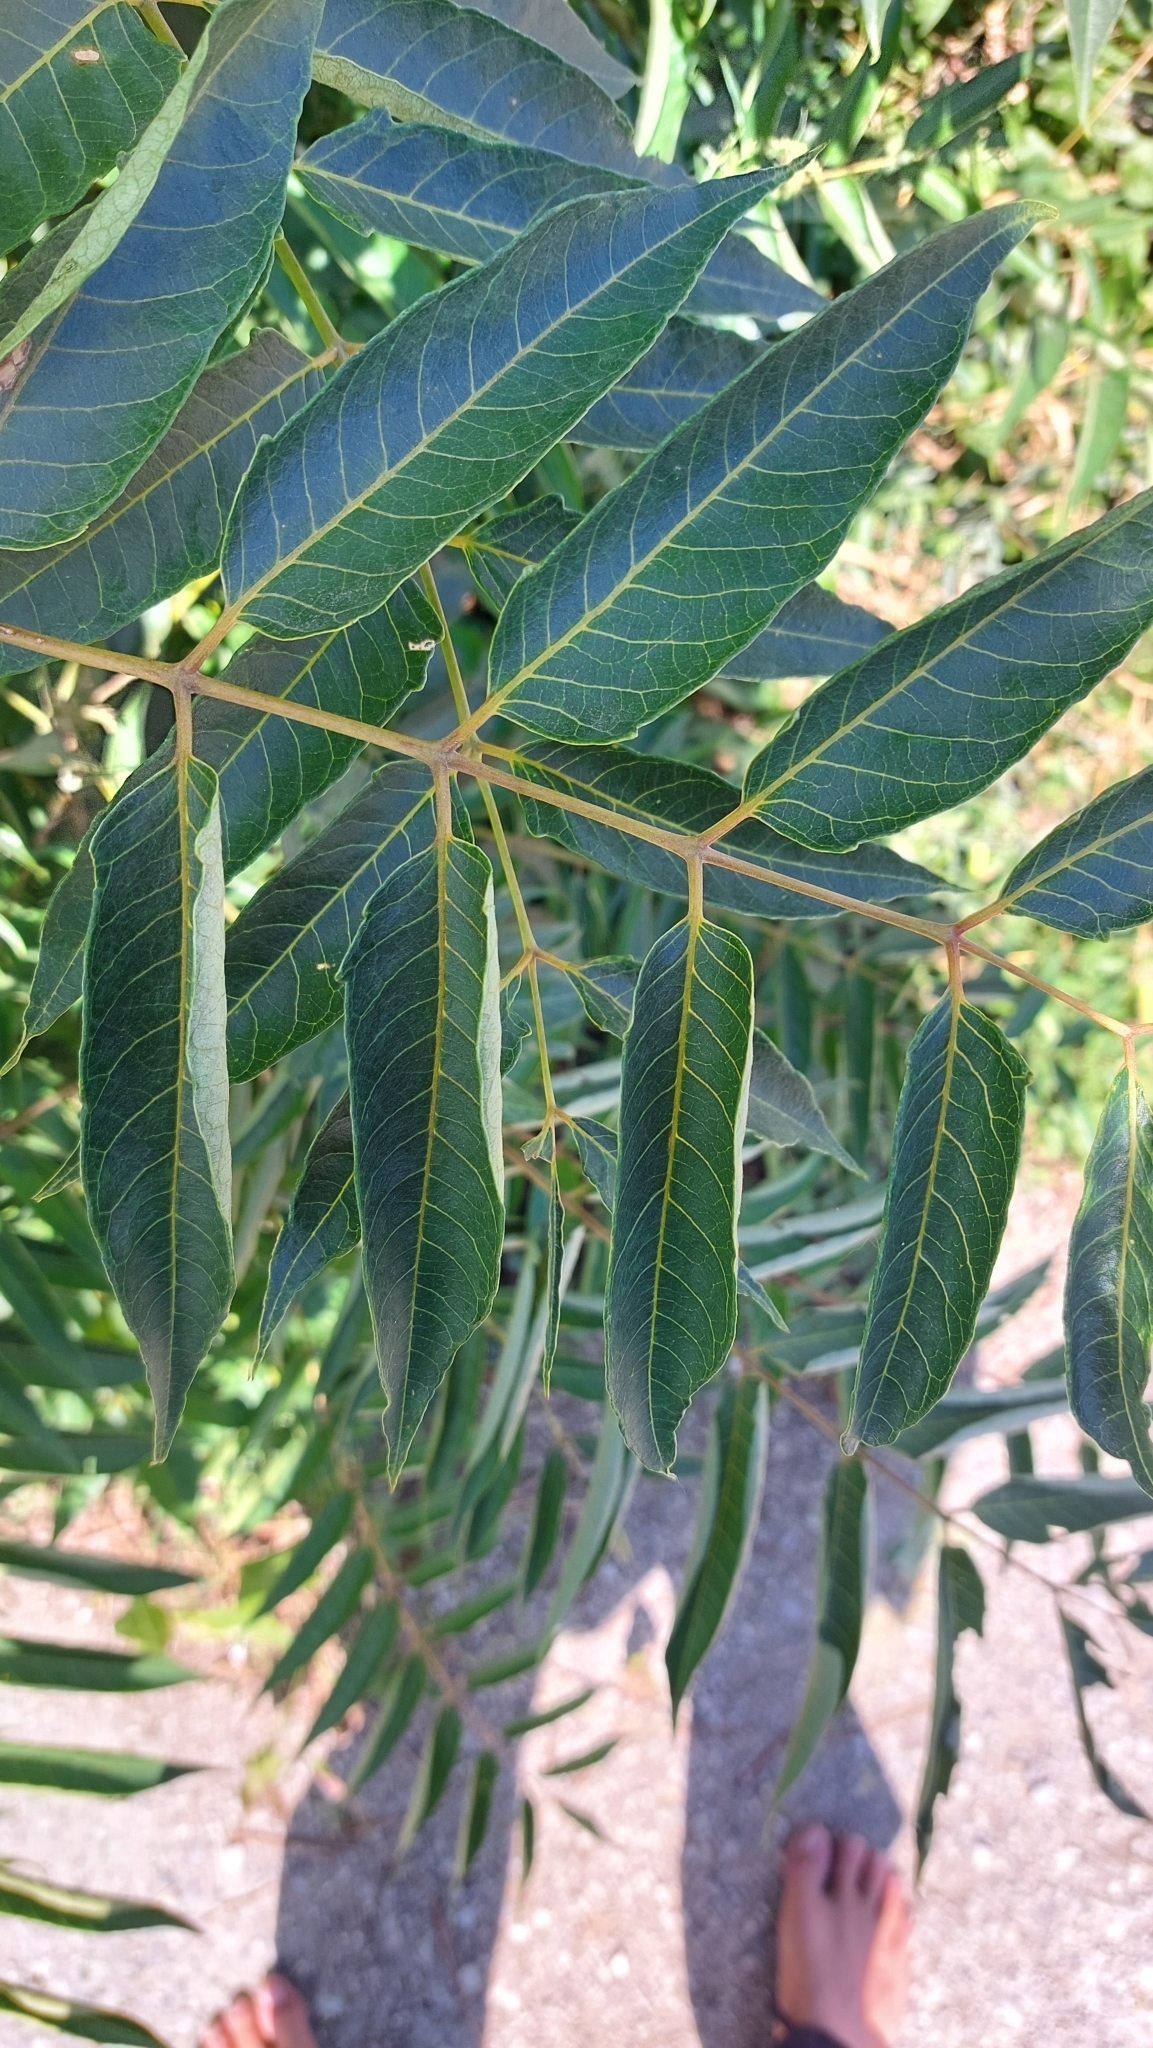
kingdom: Plantae
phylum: Tracheophyta
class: Magnoliopsida
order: Sapindales
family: Simaroubaceae
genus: Ailanthus
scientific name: Ailanthus altissima
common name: Tree-of-heaven
